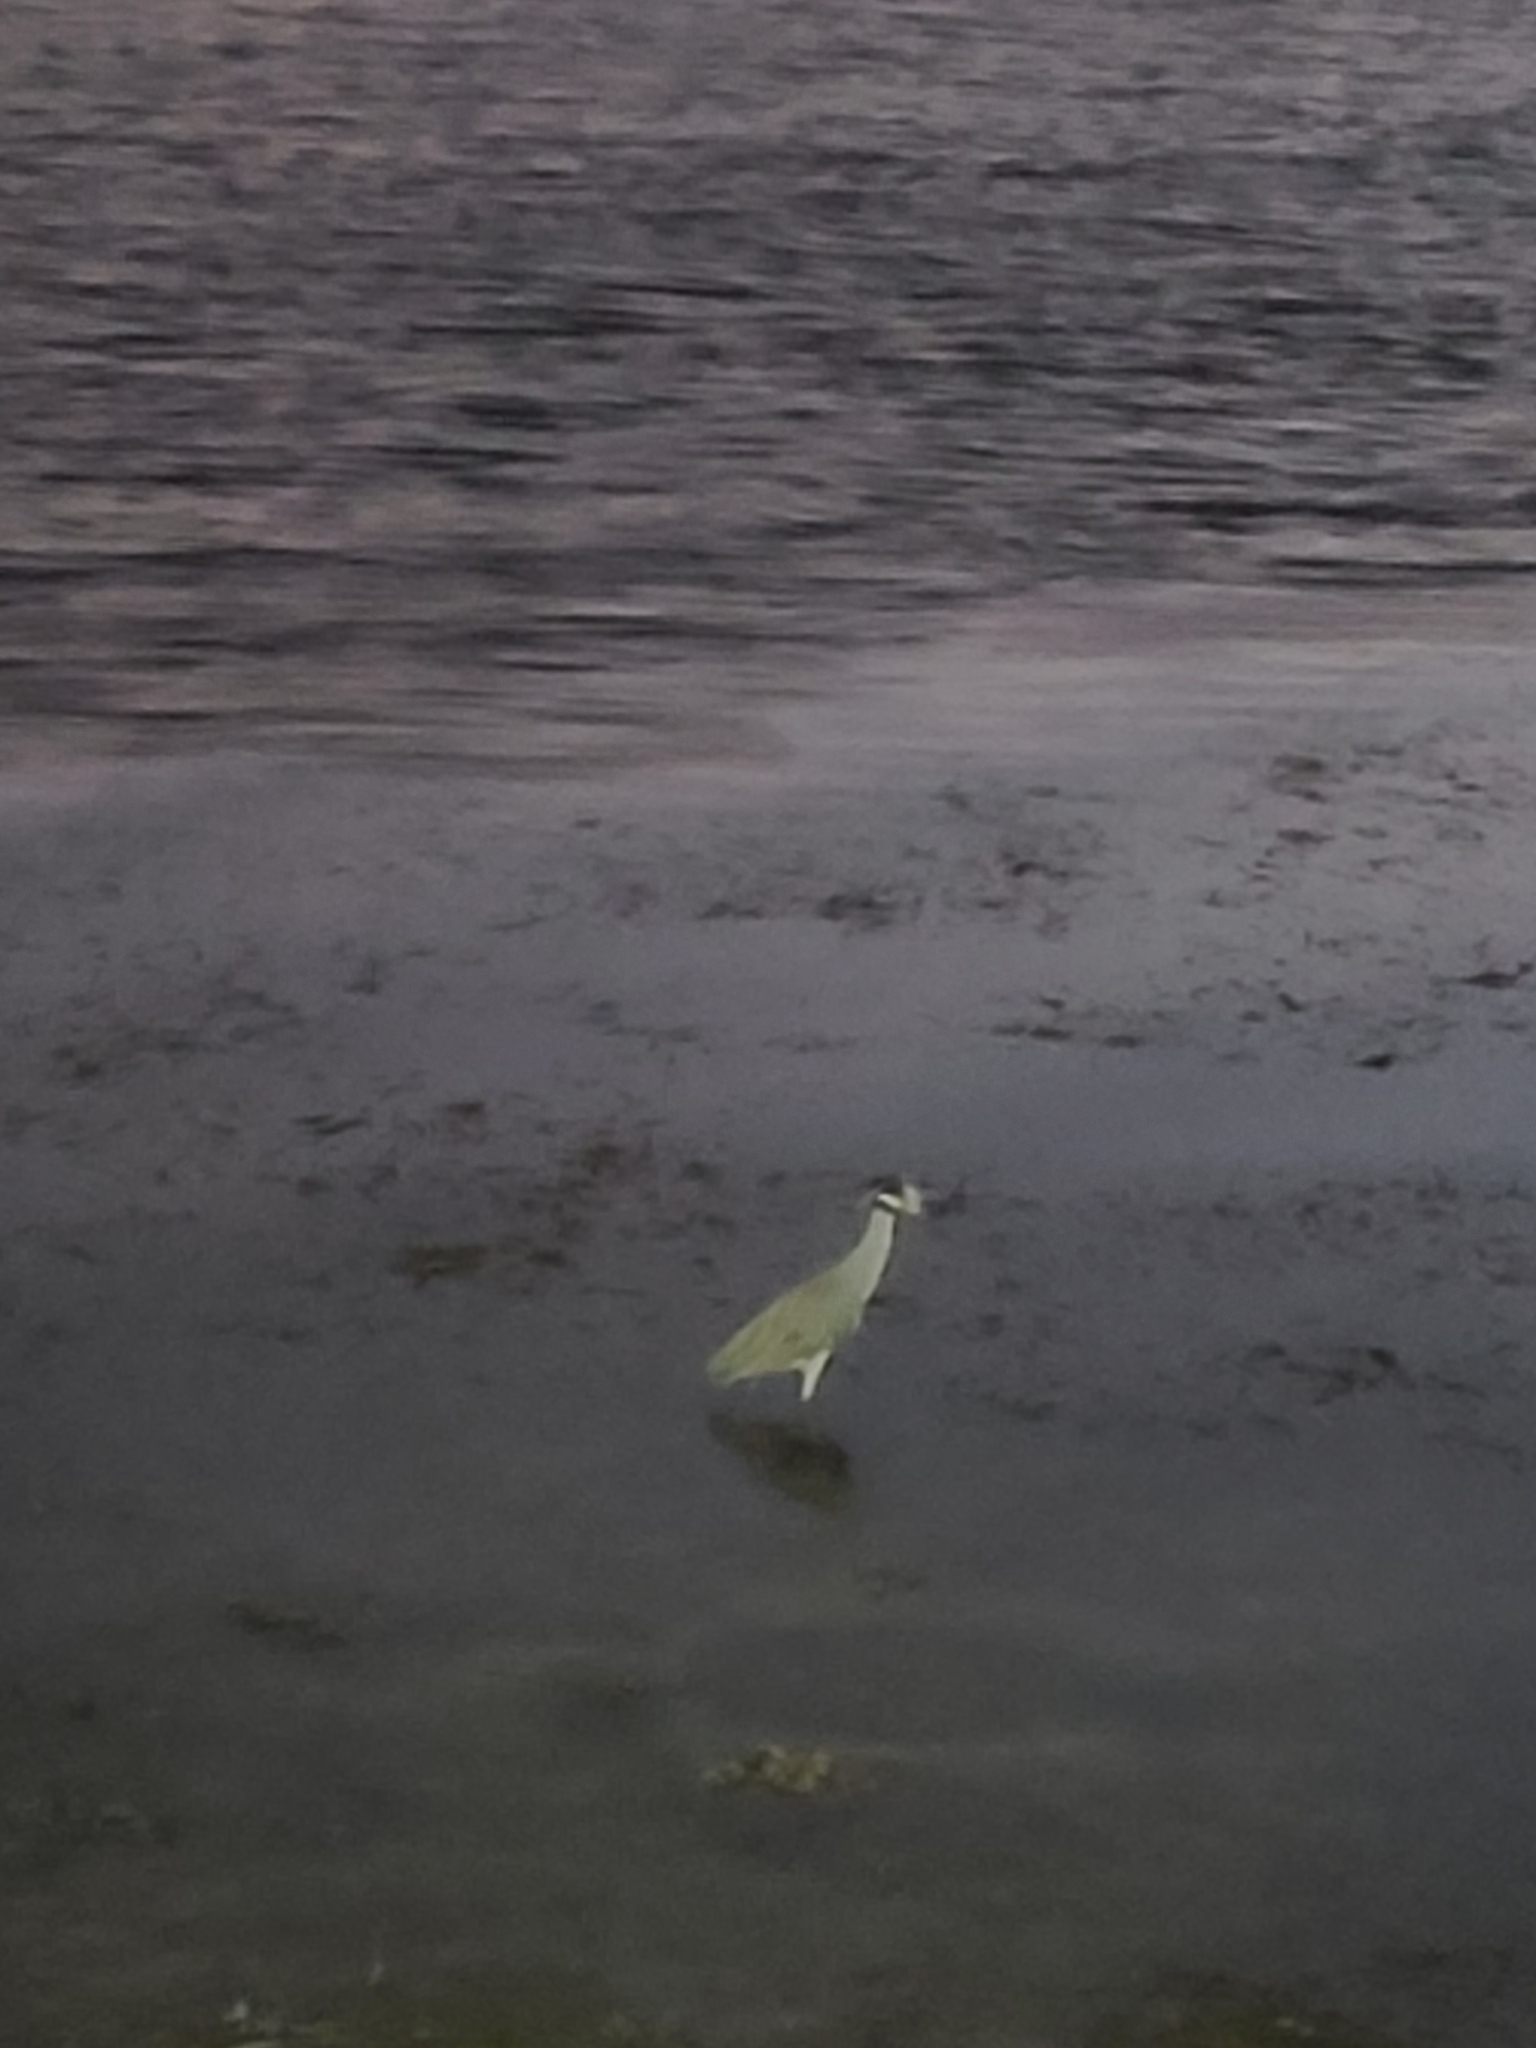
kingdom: Animalia
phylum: Chordata
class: Aves
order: Pelecaniformes
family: Ardeidae
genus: Nyctanassa
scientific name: Nyctanassa violacea
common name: Yellow-crowned night heron
